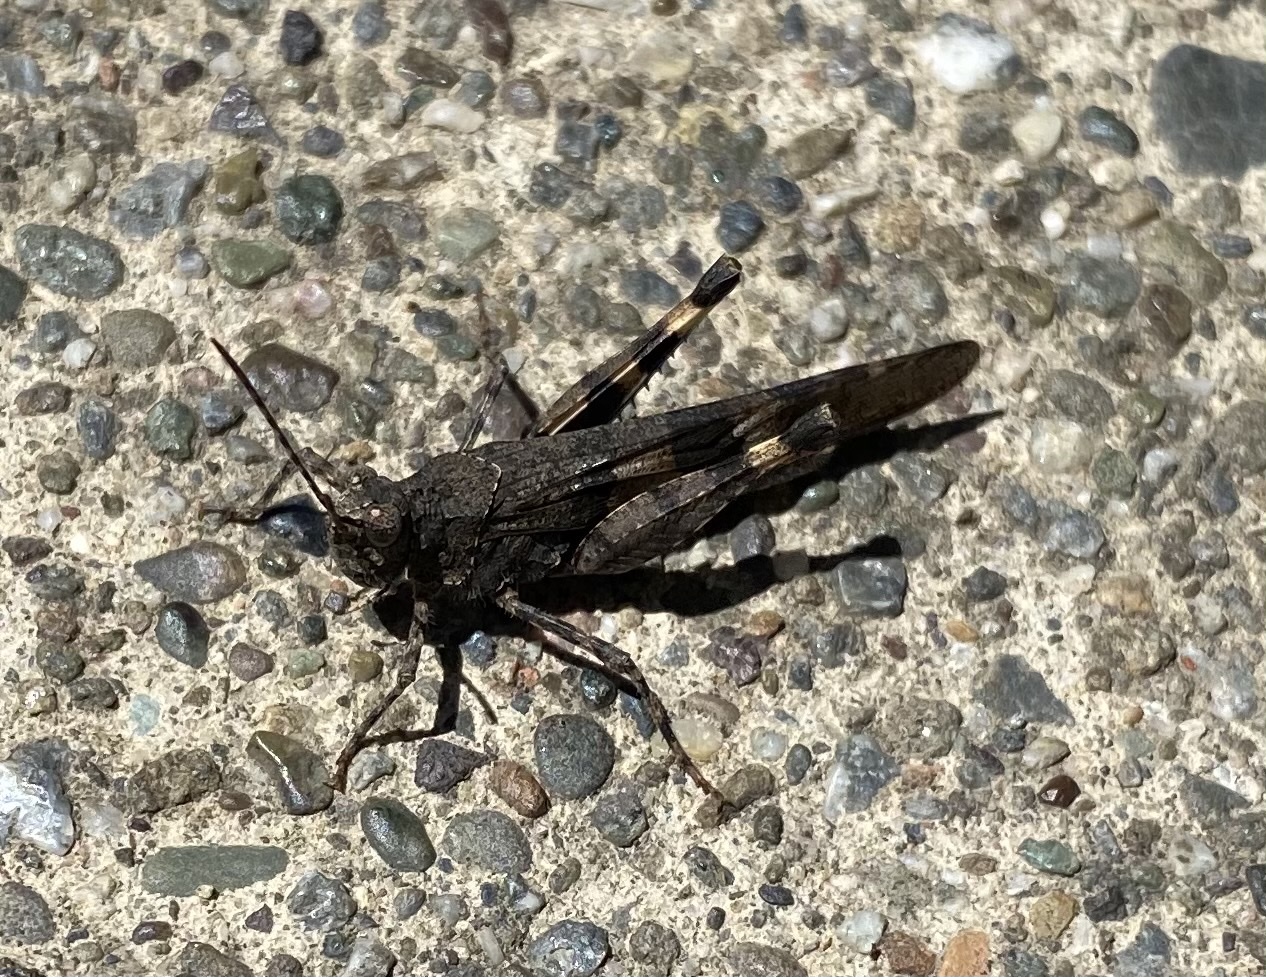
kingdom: Animalia
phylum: Arthropoda
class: Insecta
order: Orthoptera
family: Acrididae
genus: Trimerotropis
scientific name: Trimerotropis fontana
